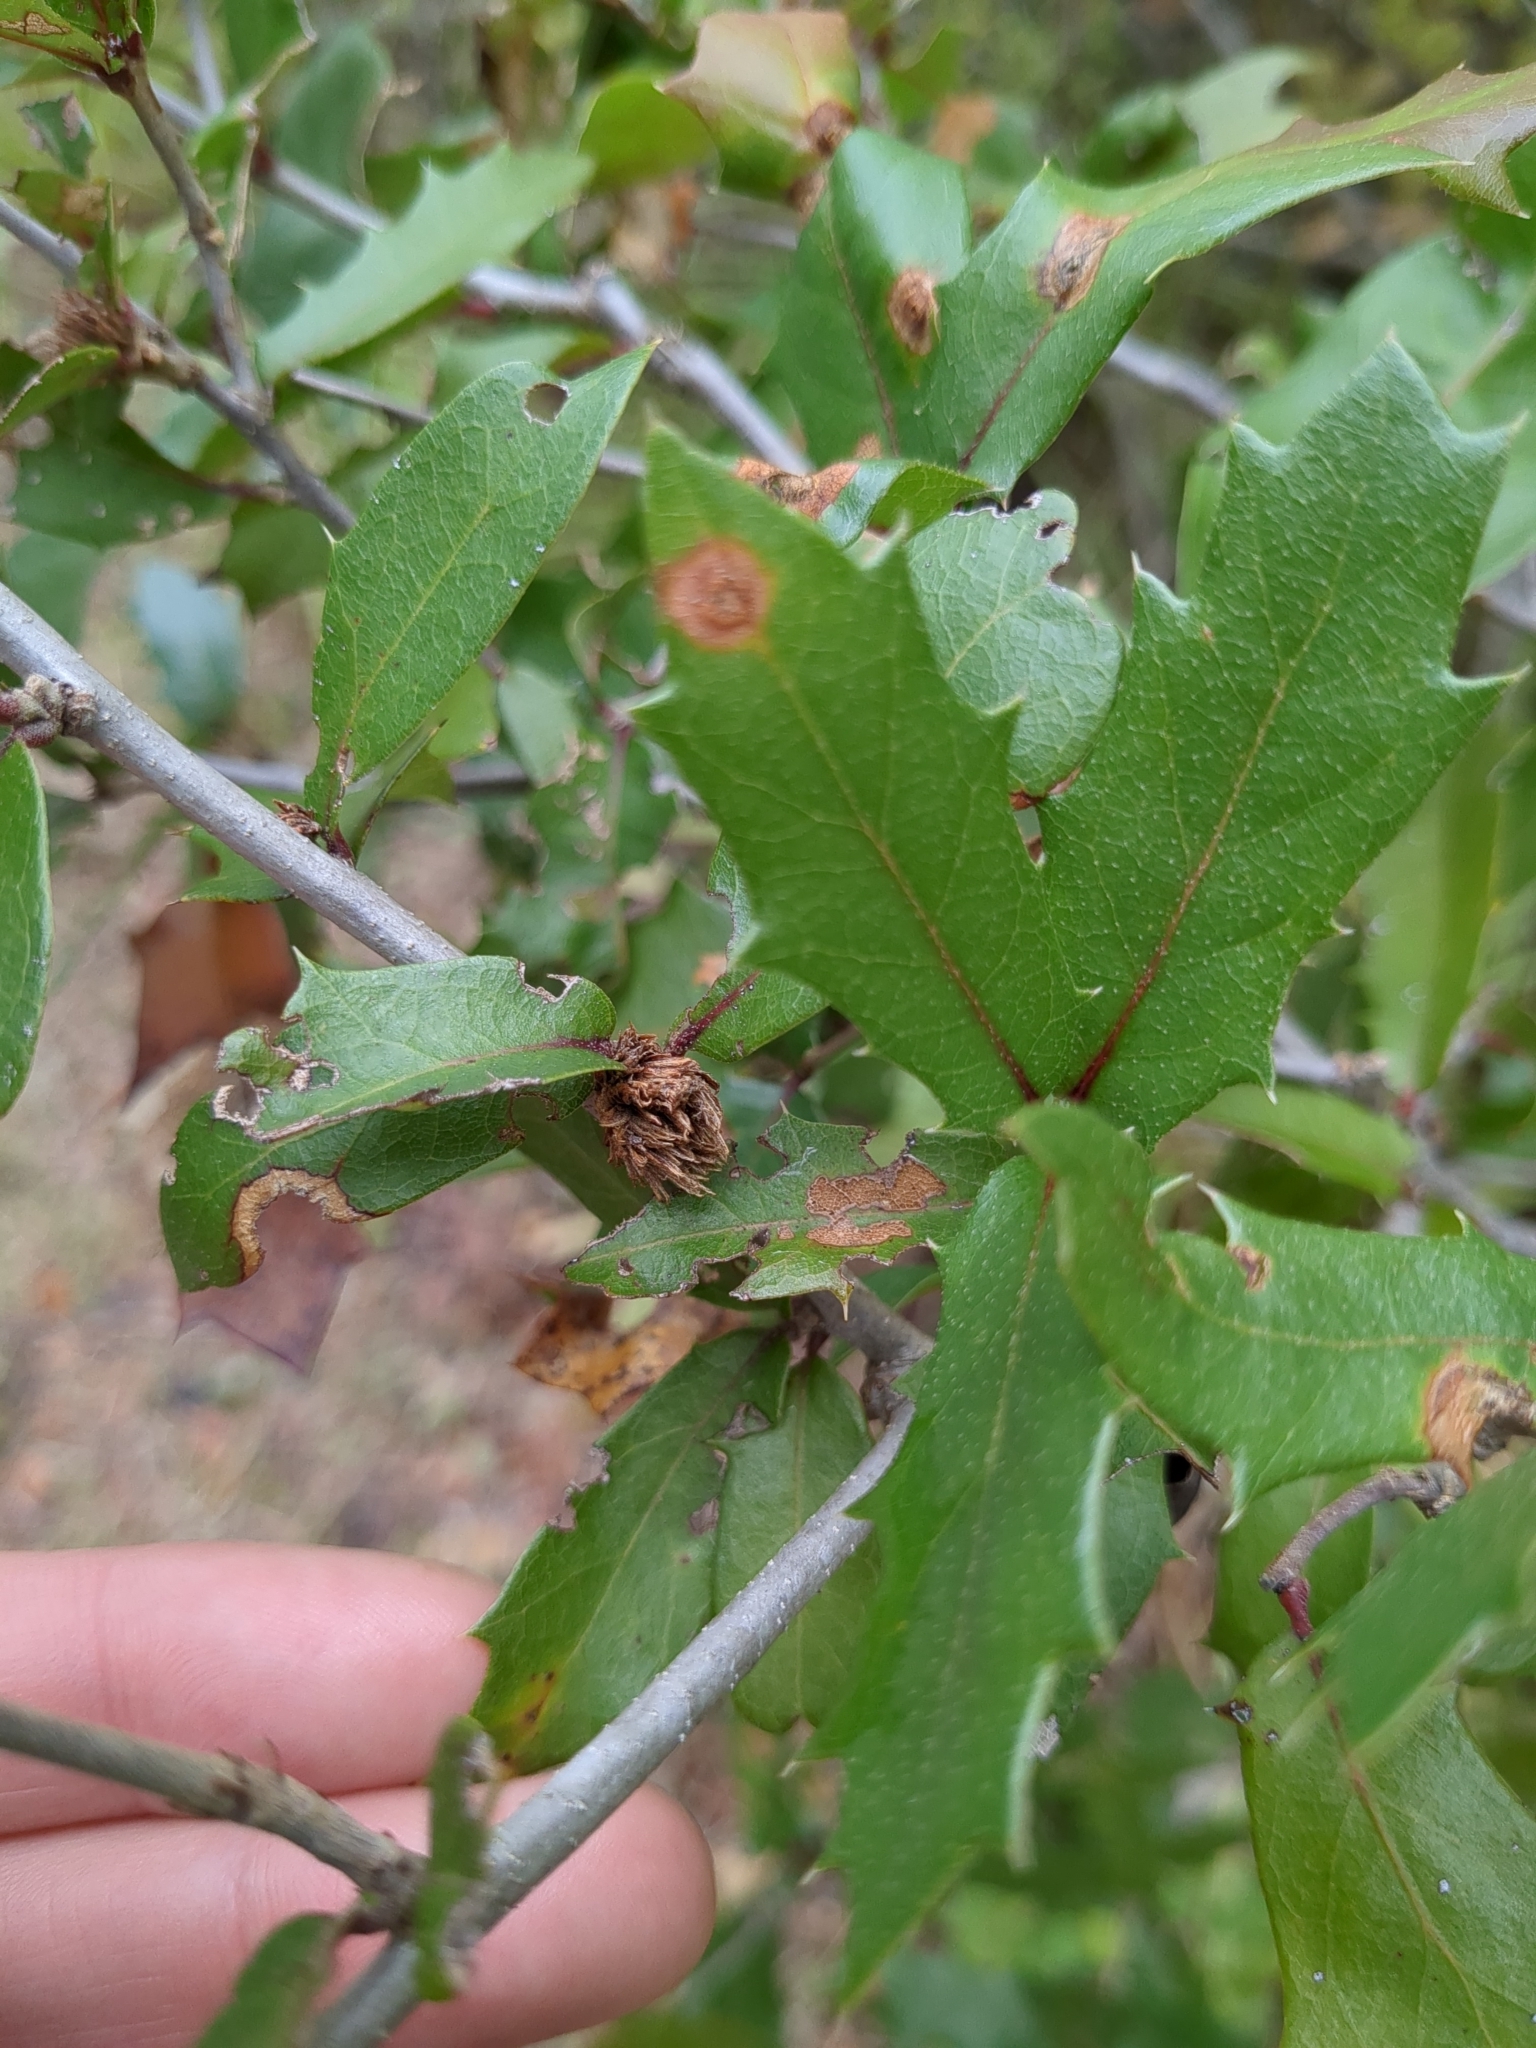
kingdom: Animalia
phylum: Arthropoda
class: Insecta
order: Hymenoptera
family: Cynipidae
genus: Andricus
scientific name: Andricus quercusfoliatus
